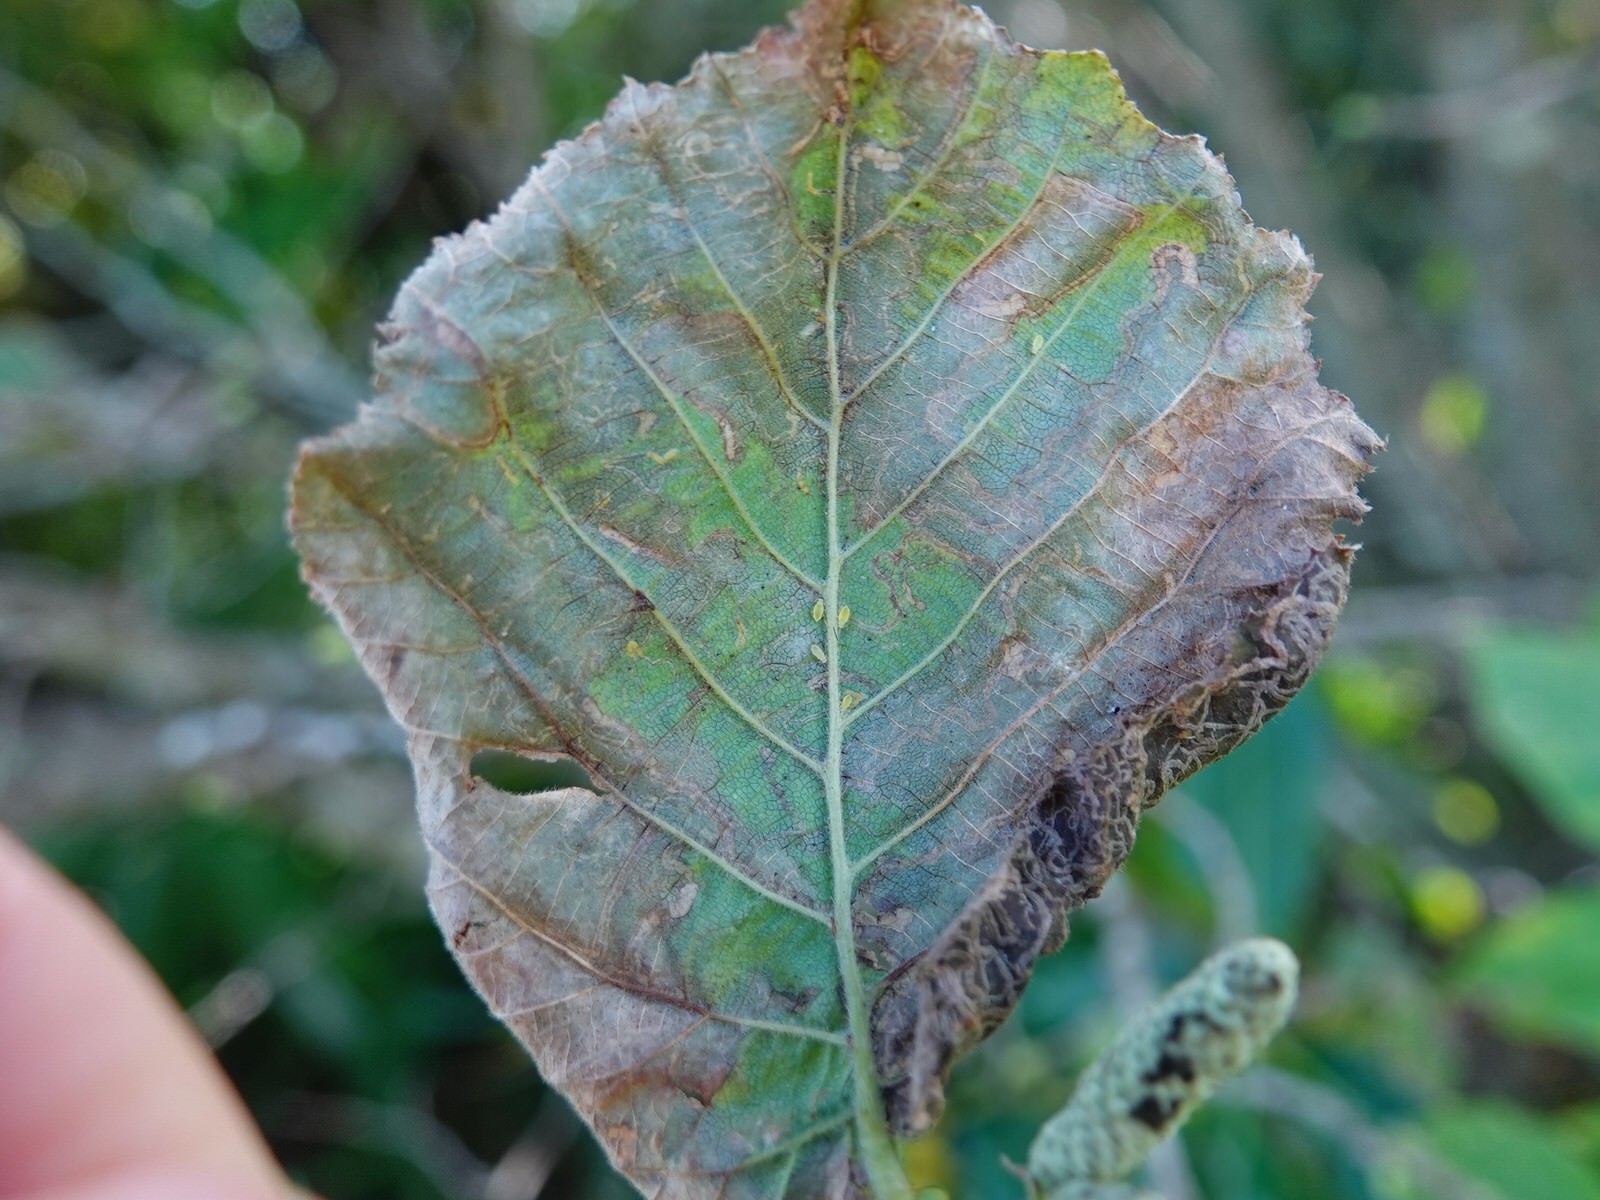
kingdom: Animalia
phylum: Arthropoda
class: Insecta
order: Lepidoptera
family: Nepticulidae
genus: Stigmella
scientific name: Stigmella microtheriella
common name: Nut-tree pigmy
